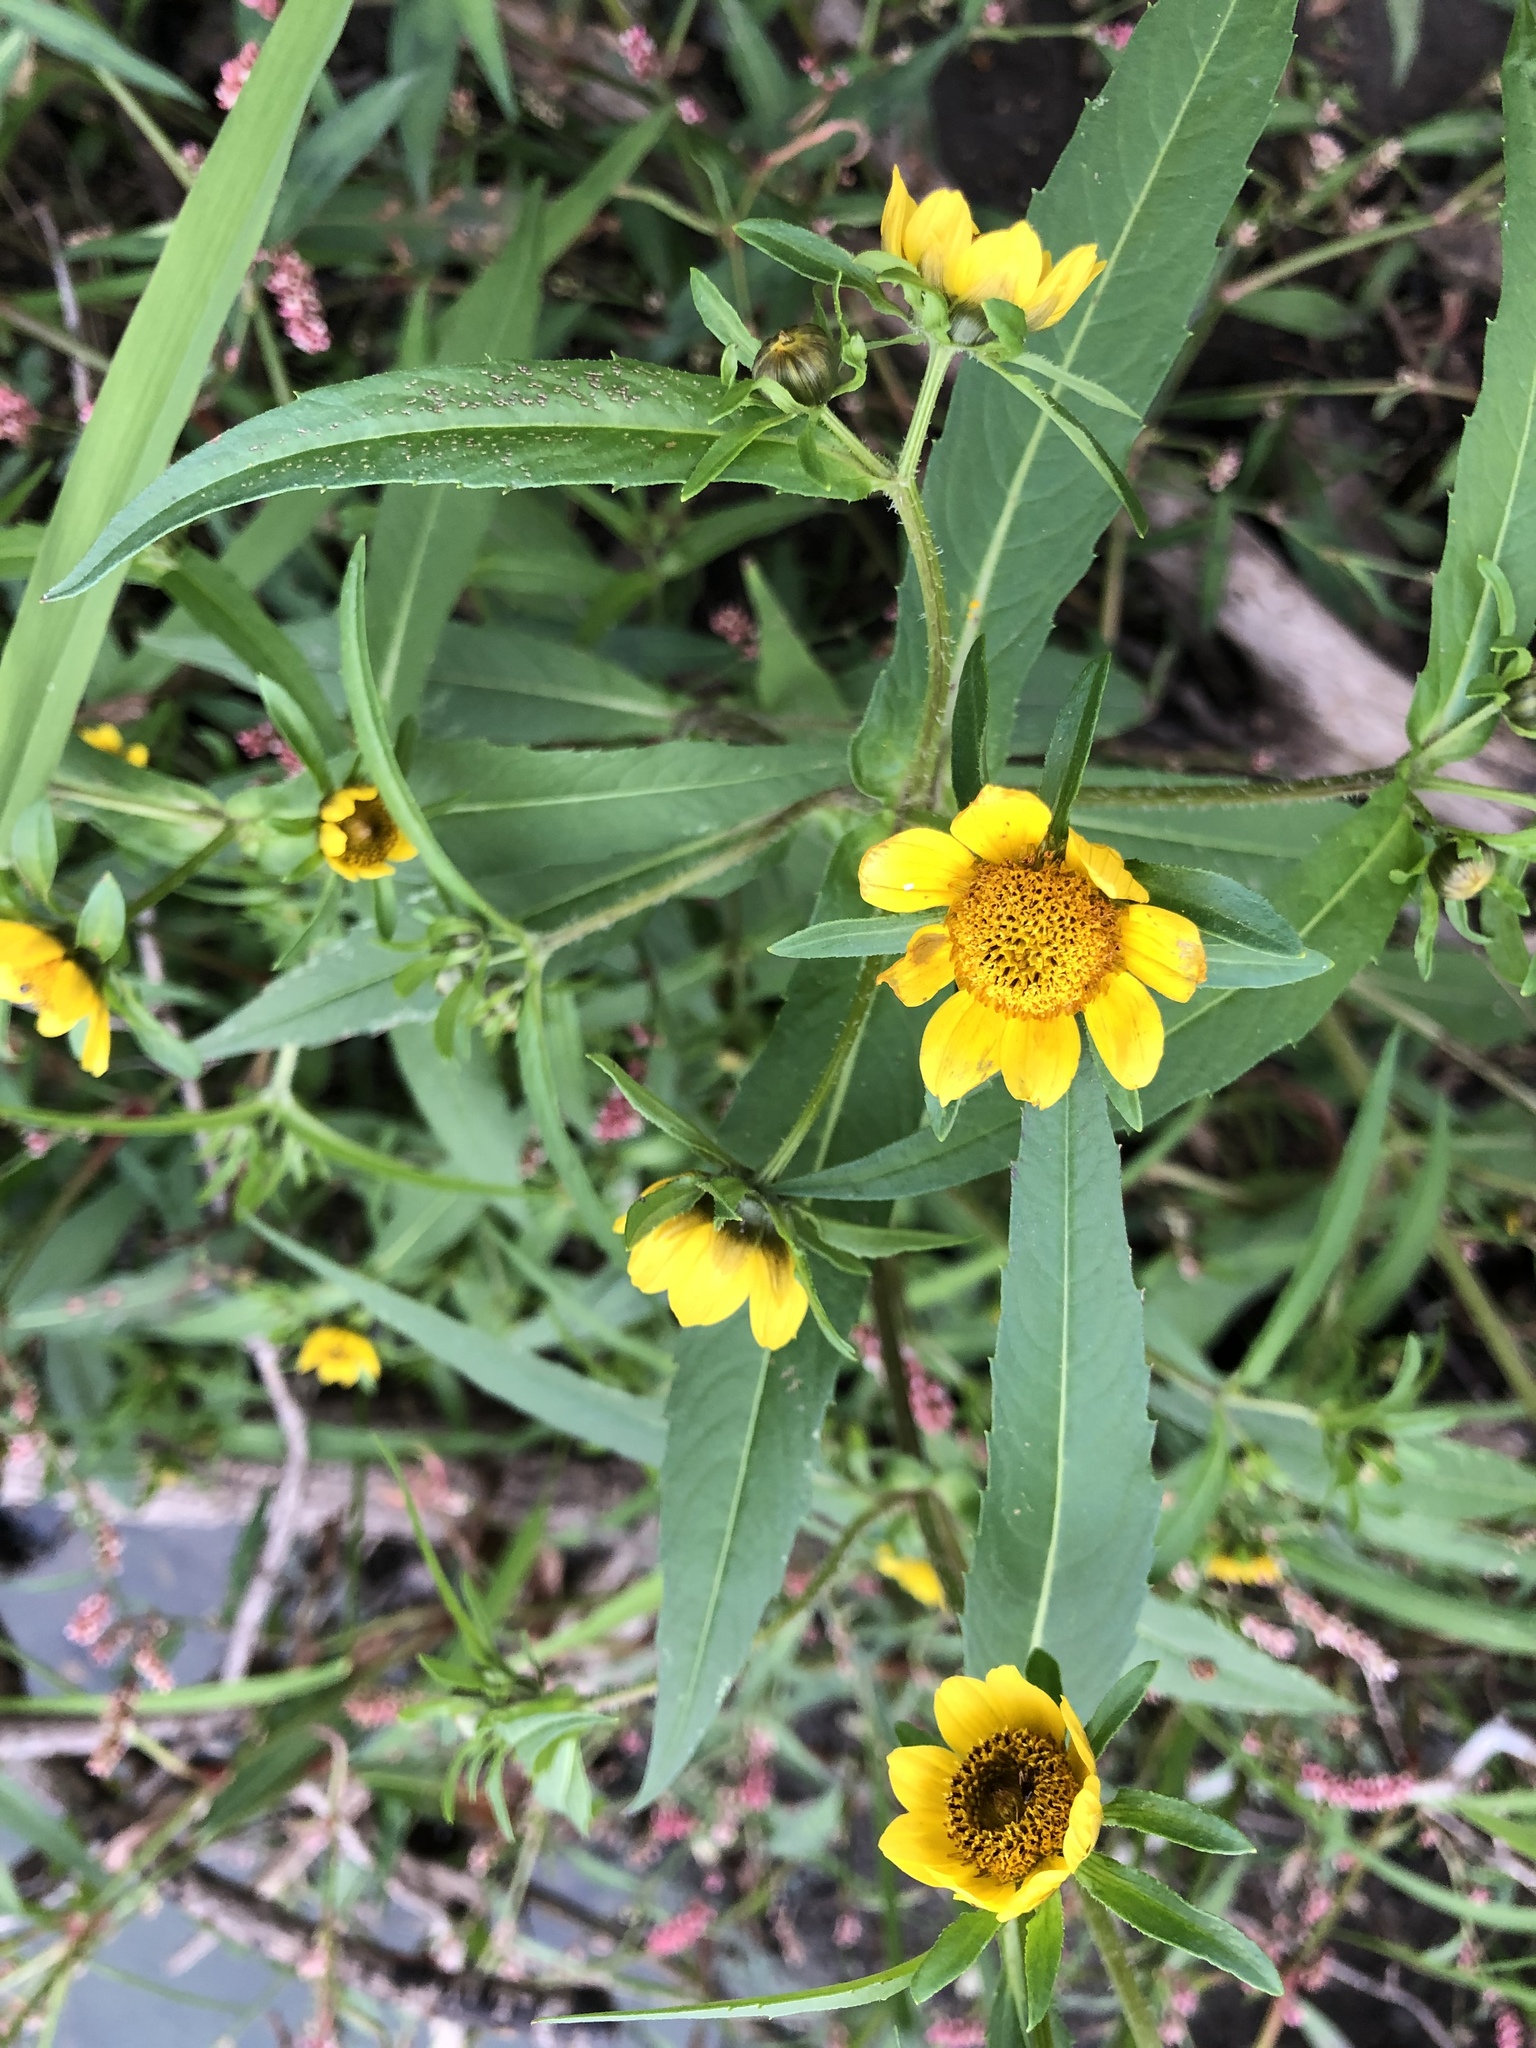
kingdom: Plantae
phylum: Tracheophyta
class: Magnoliopsida
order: Asterales
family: Asteraceae
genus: Bidens
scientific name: Bidens cernua
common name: Nodding bur-marigold
